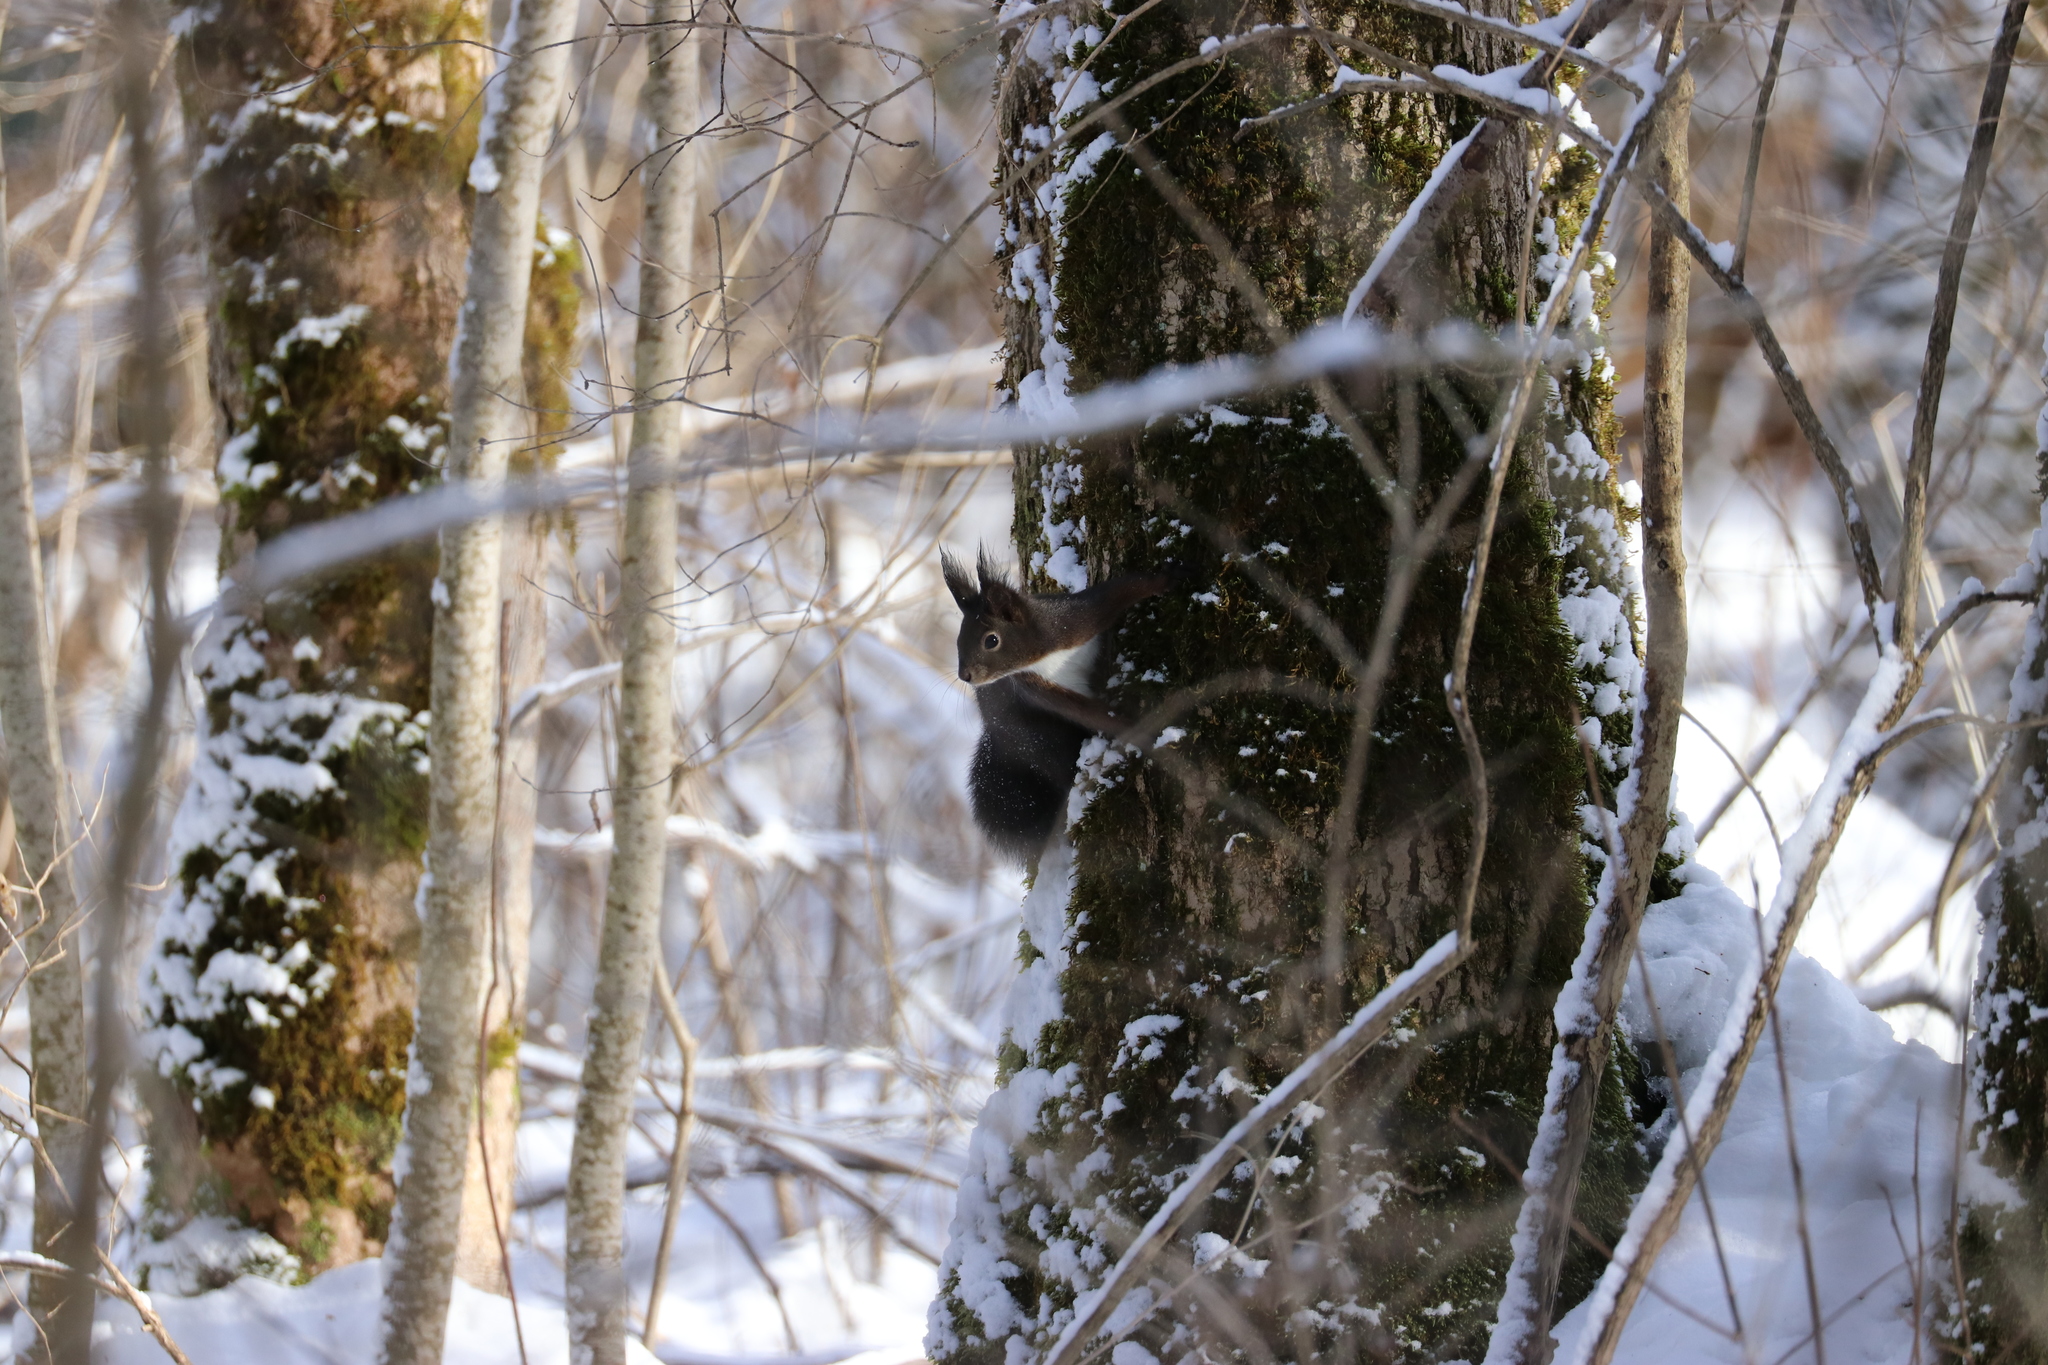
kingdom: Animalia
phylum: Chordata
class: Mammalia
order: Rodentia
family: Sciuridae
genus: Sciurus
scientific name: Sciurus vulgaris
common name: Eurasian red squirrel
